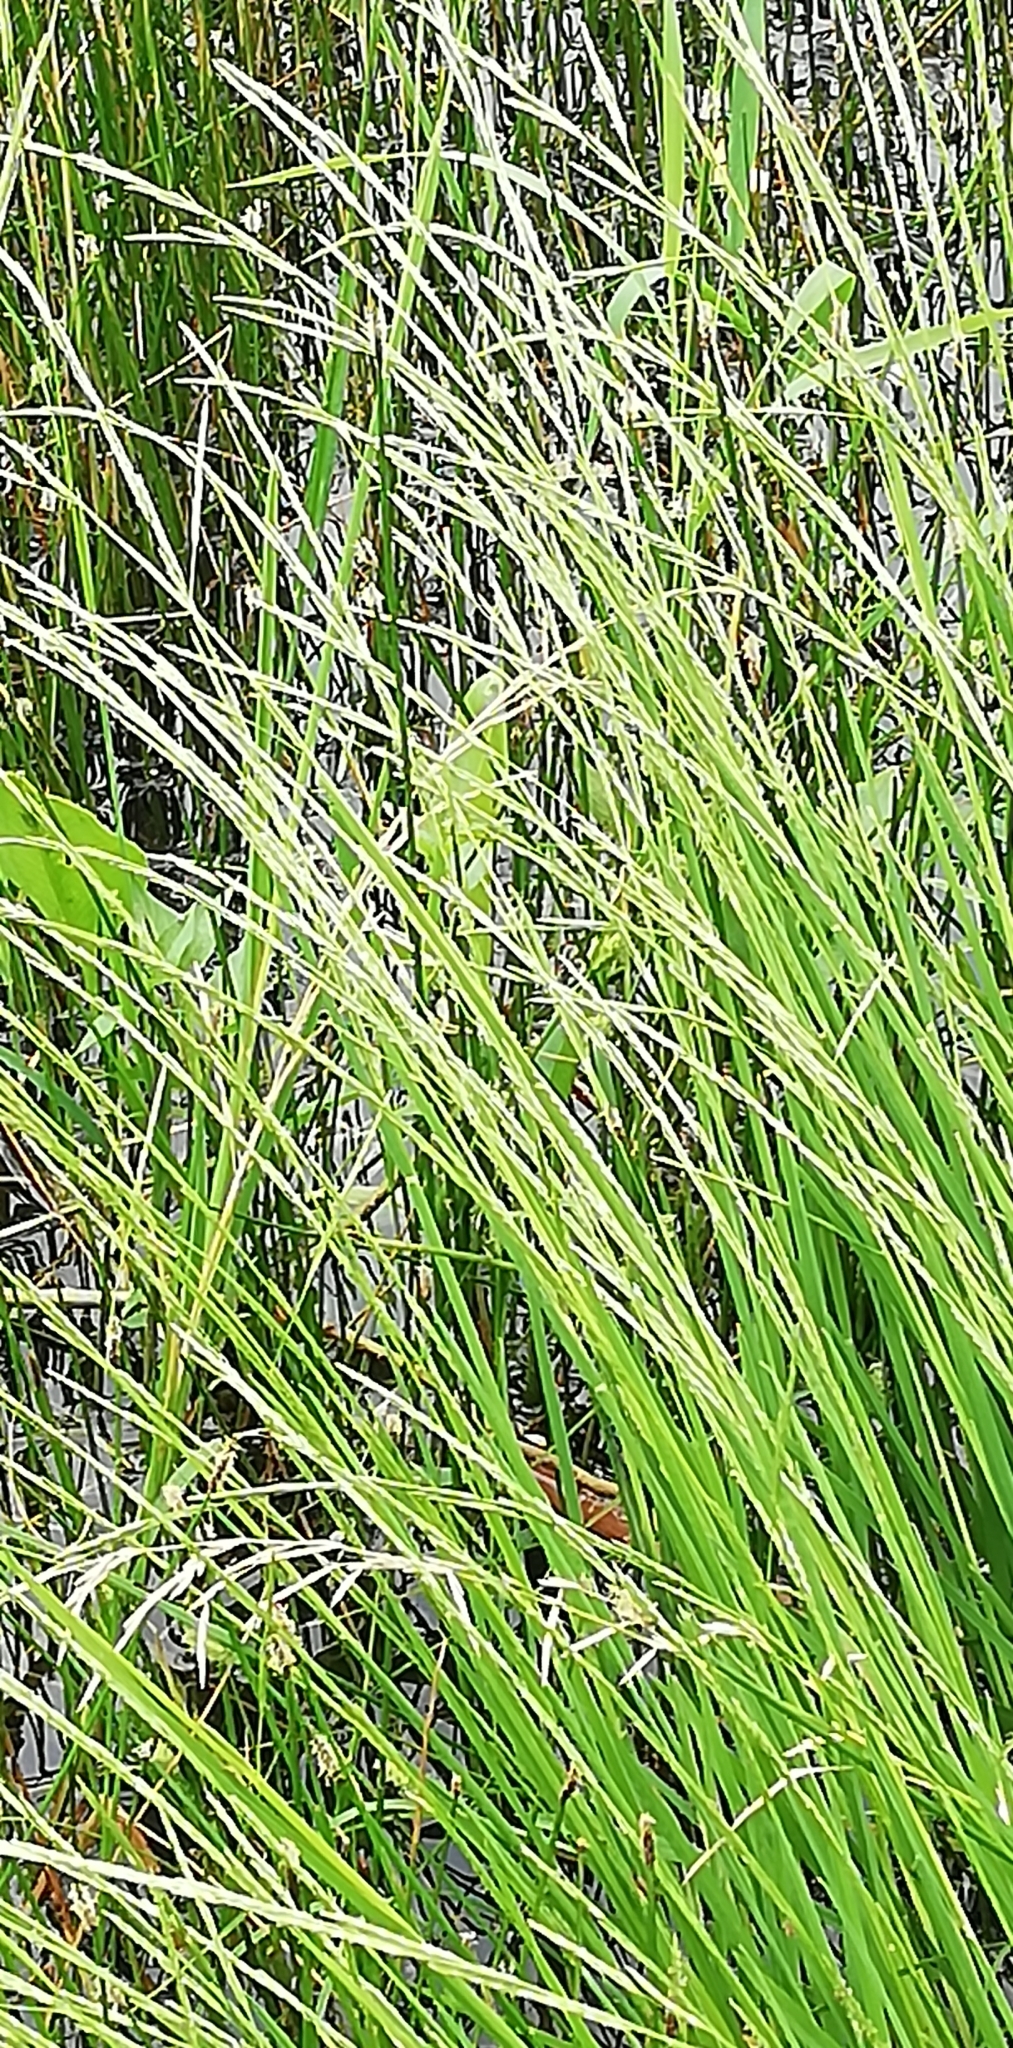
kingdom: Plantae
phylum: Tracheophyta
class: Liliopsida
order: Poales
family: Poaceae
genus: Glyceria
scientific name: Glyceria fluitans
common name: Floating sweet-grass
